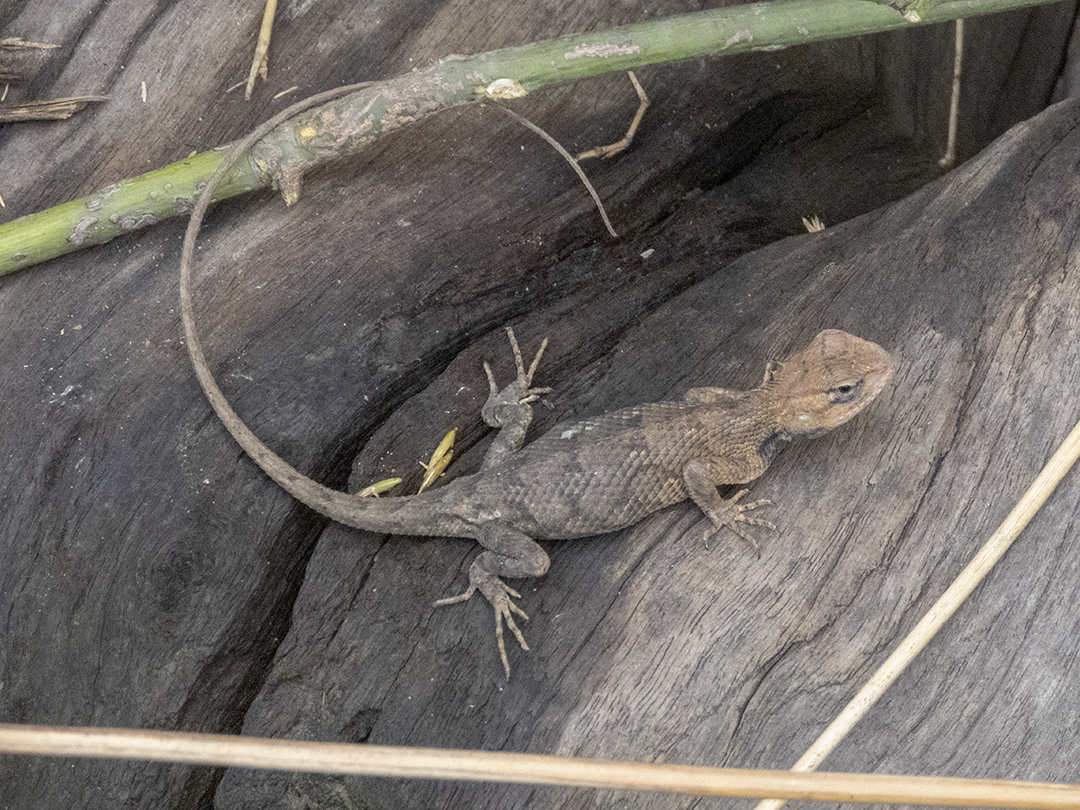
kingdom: Animalia
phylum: Chordata
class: Squamata
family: Agamidae
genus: Calotes
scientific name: Calotes versicolor
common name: Oriental garden lizard
